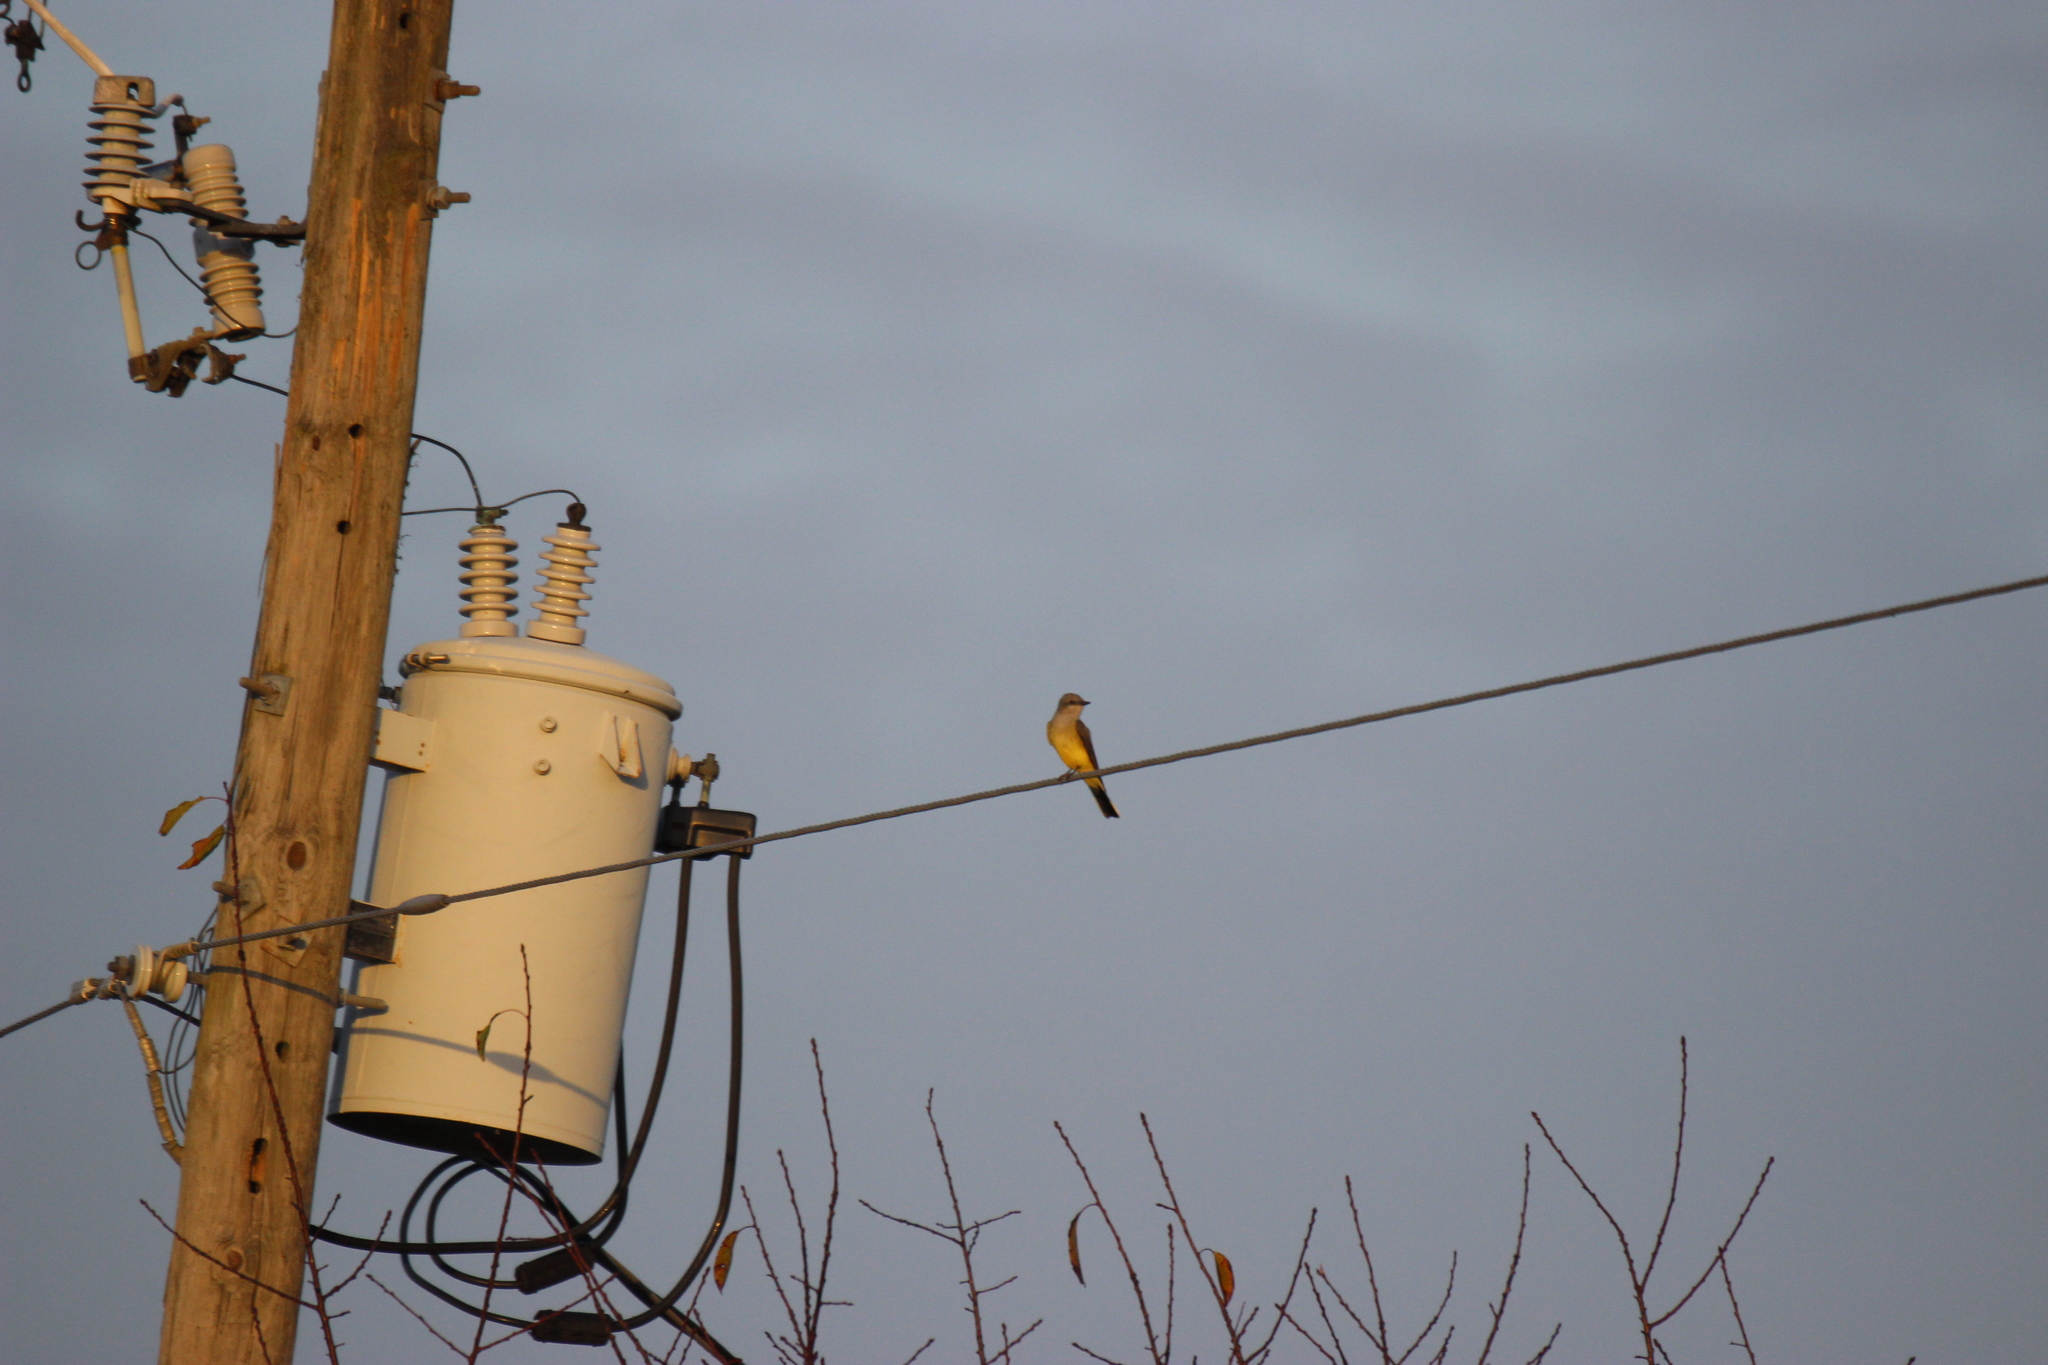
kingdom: Animalia
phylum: Chordata
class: Aves
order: Passeriformes
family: Tyrannidae
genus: Tyrannus
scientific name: Tyrannus verticalis
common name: Western kingbird
